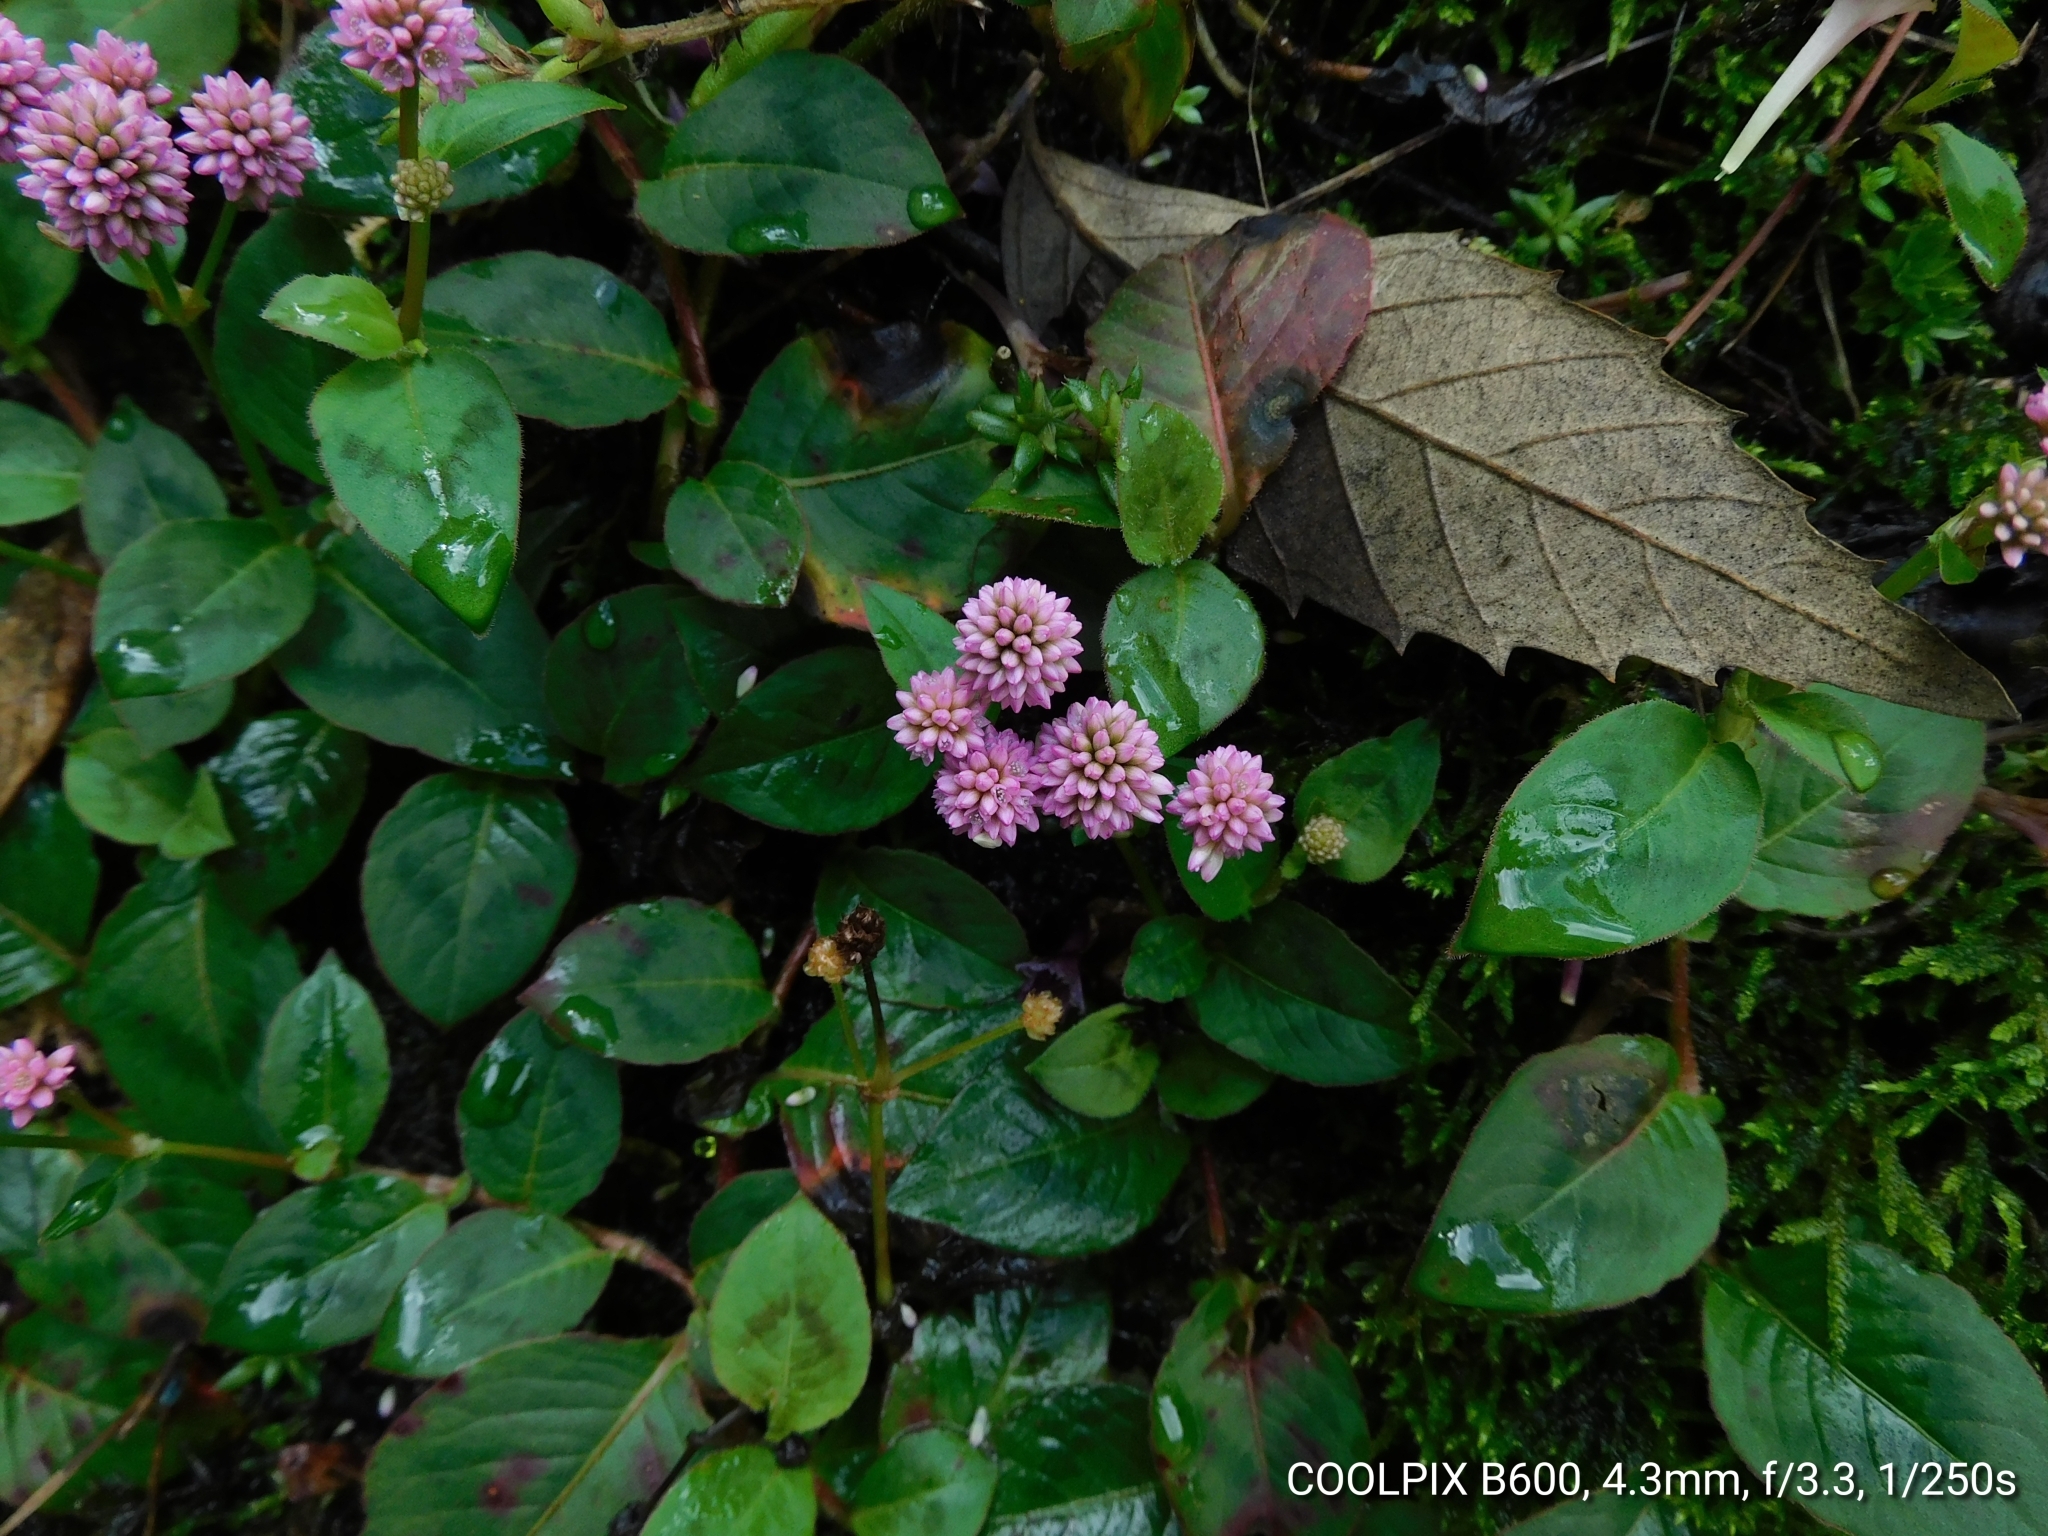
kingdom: Plantae
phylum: Tracheophyta
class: Magnoliopsida
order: Caryophyllales
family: Polygonaceae
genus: Persicaria
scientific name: Persicaria capitata
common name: Pinkhead smartweed
